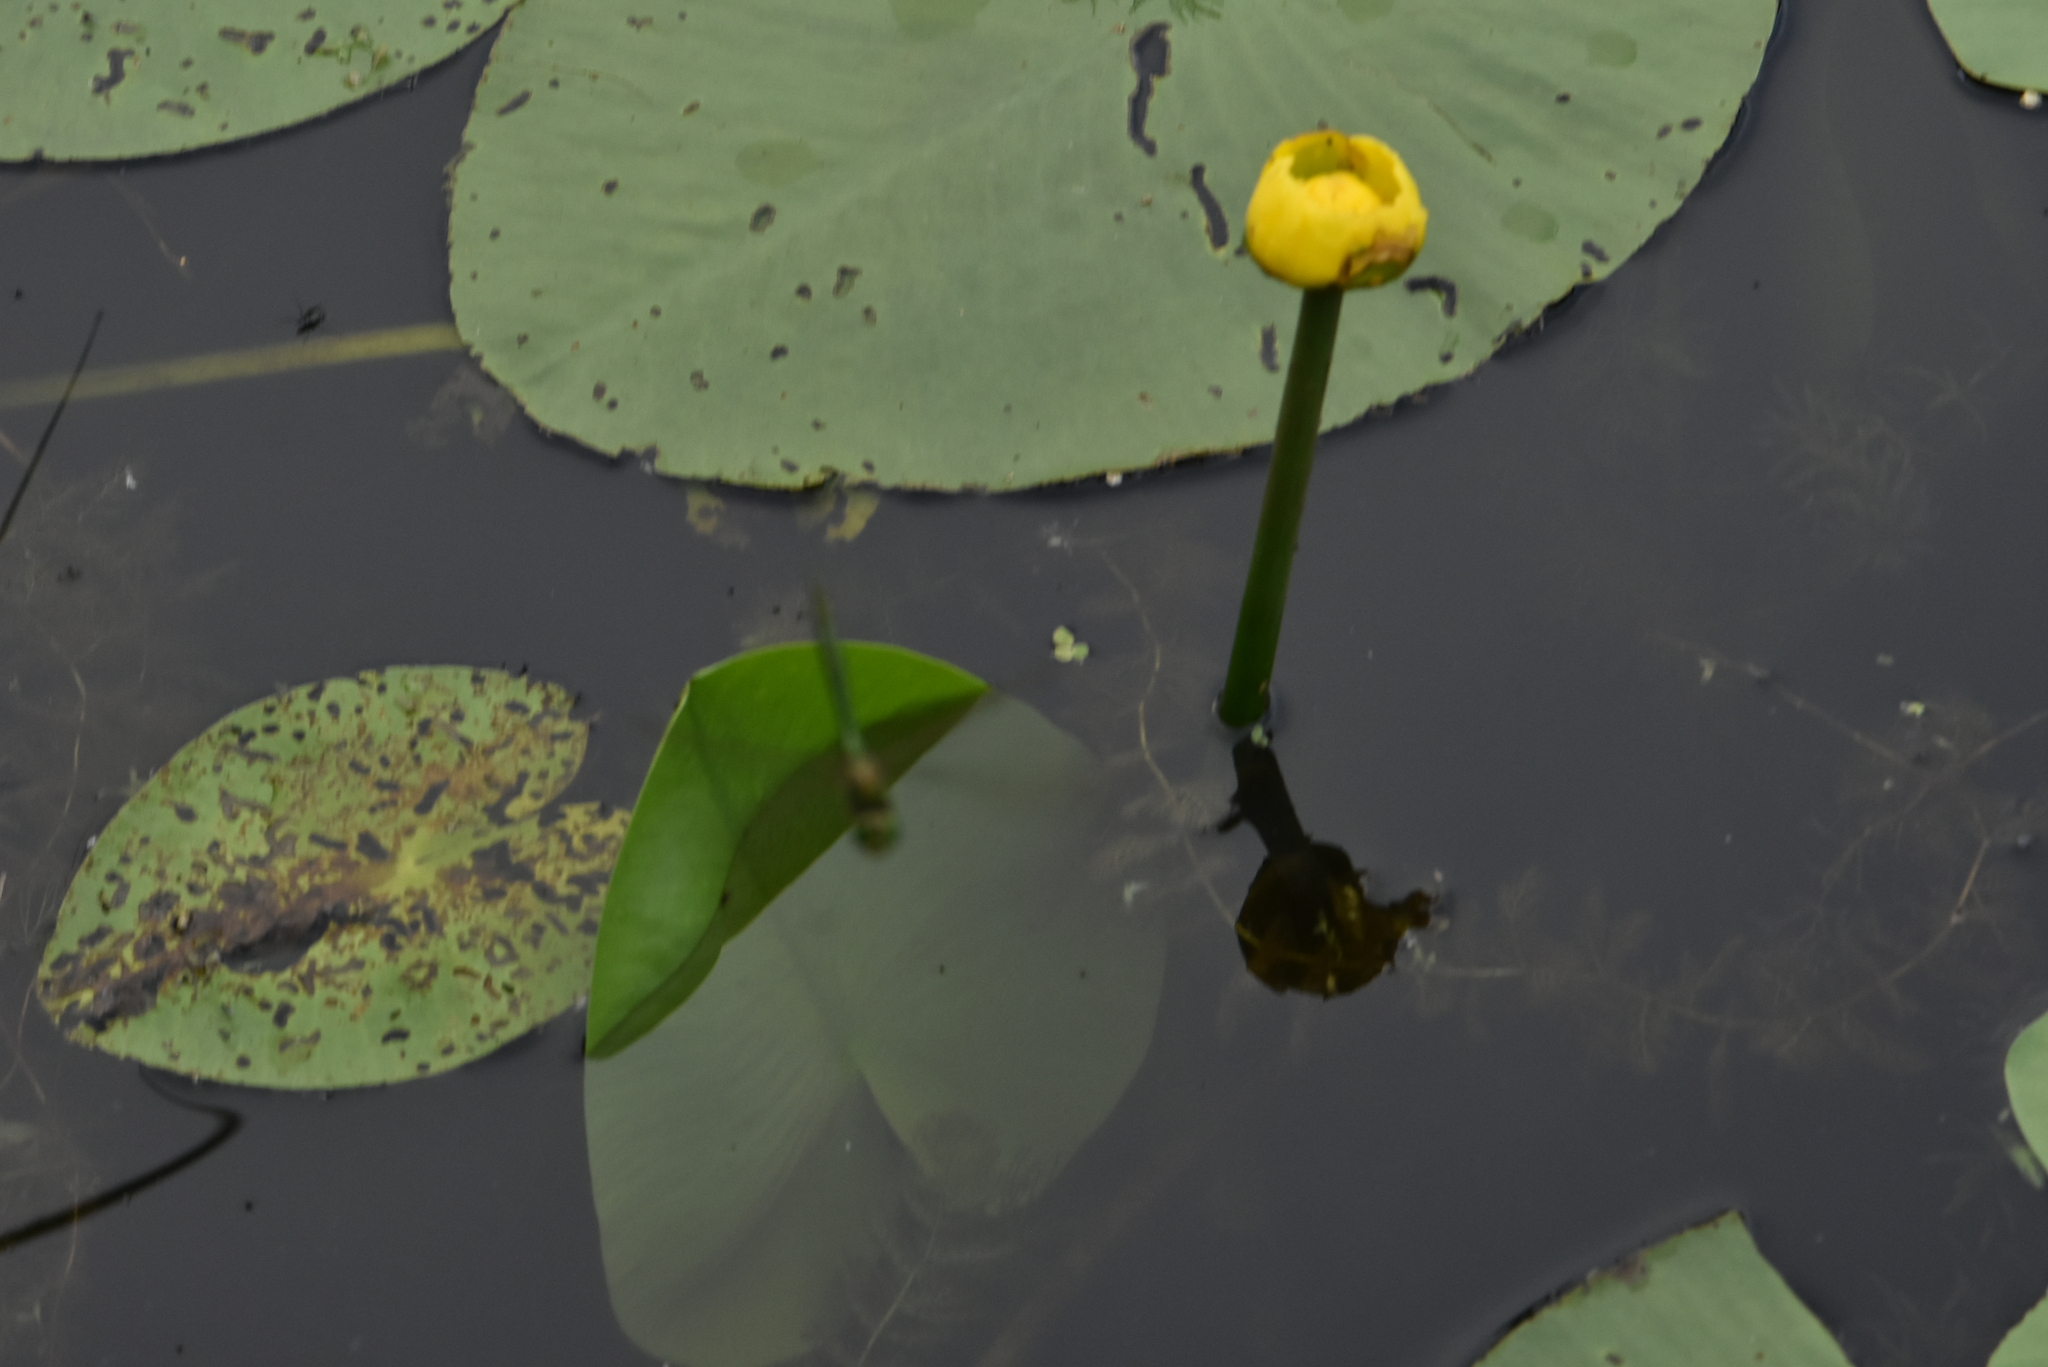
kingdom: Plantae
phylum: Tracheophyta
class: Magnoliopsida
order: Nymphaeales
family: Nymphaeaceae
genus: Nuphar
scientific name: Nuphar lutea
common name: Yellow water-lily
